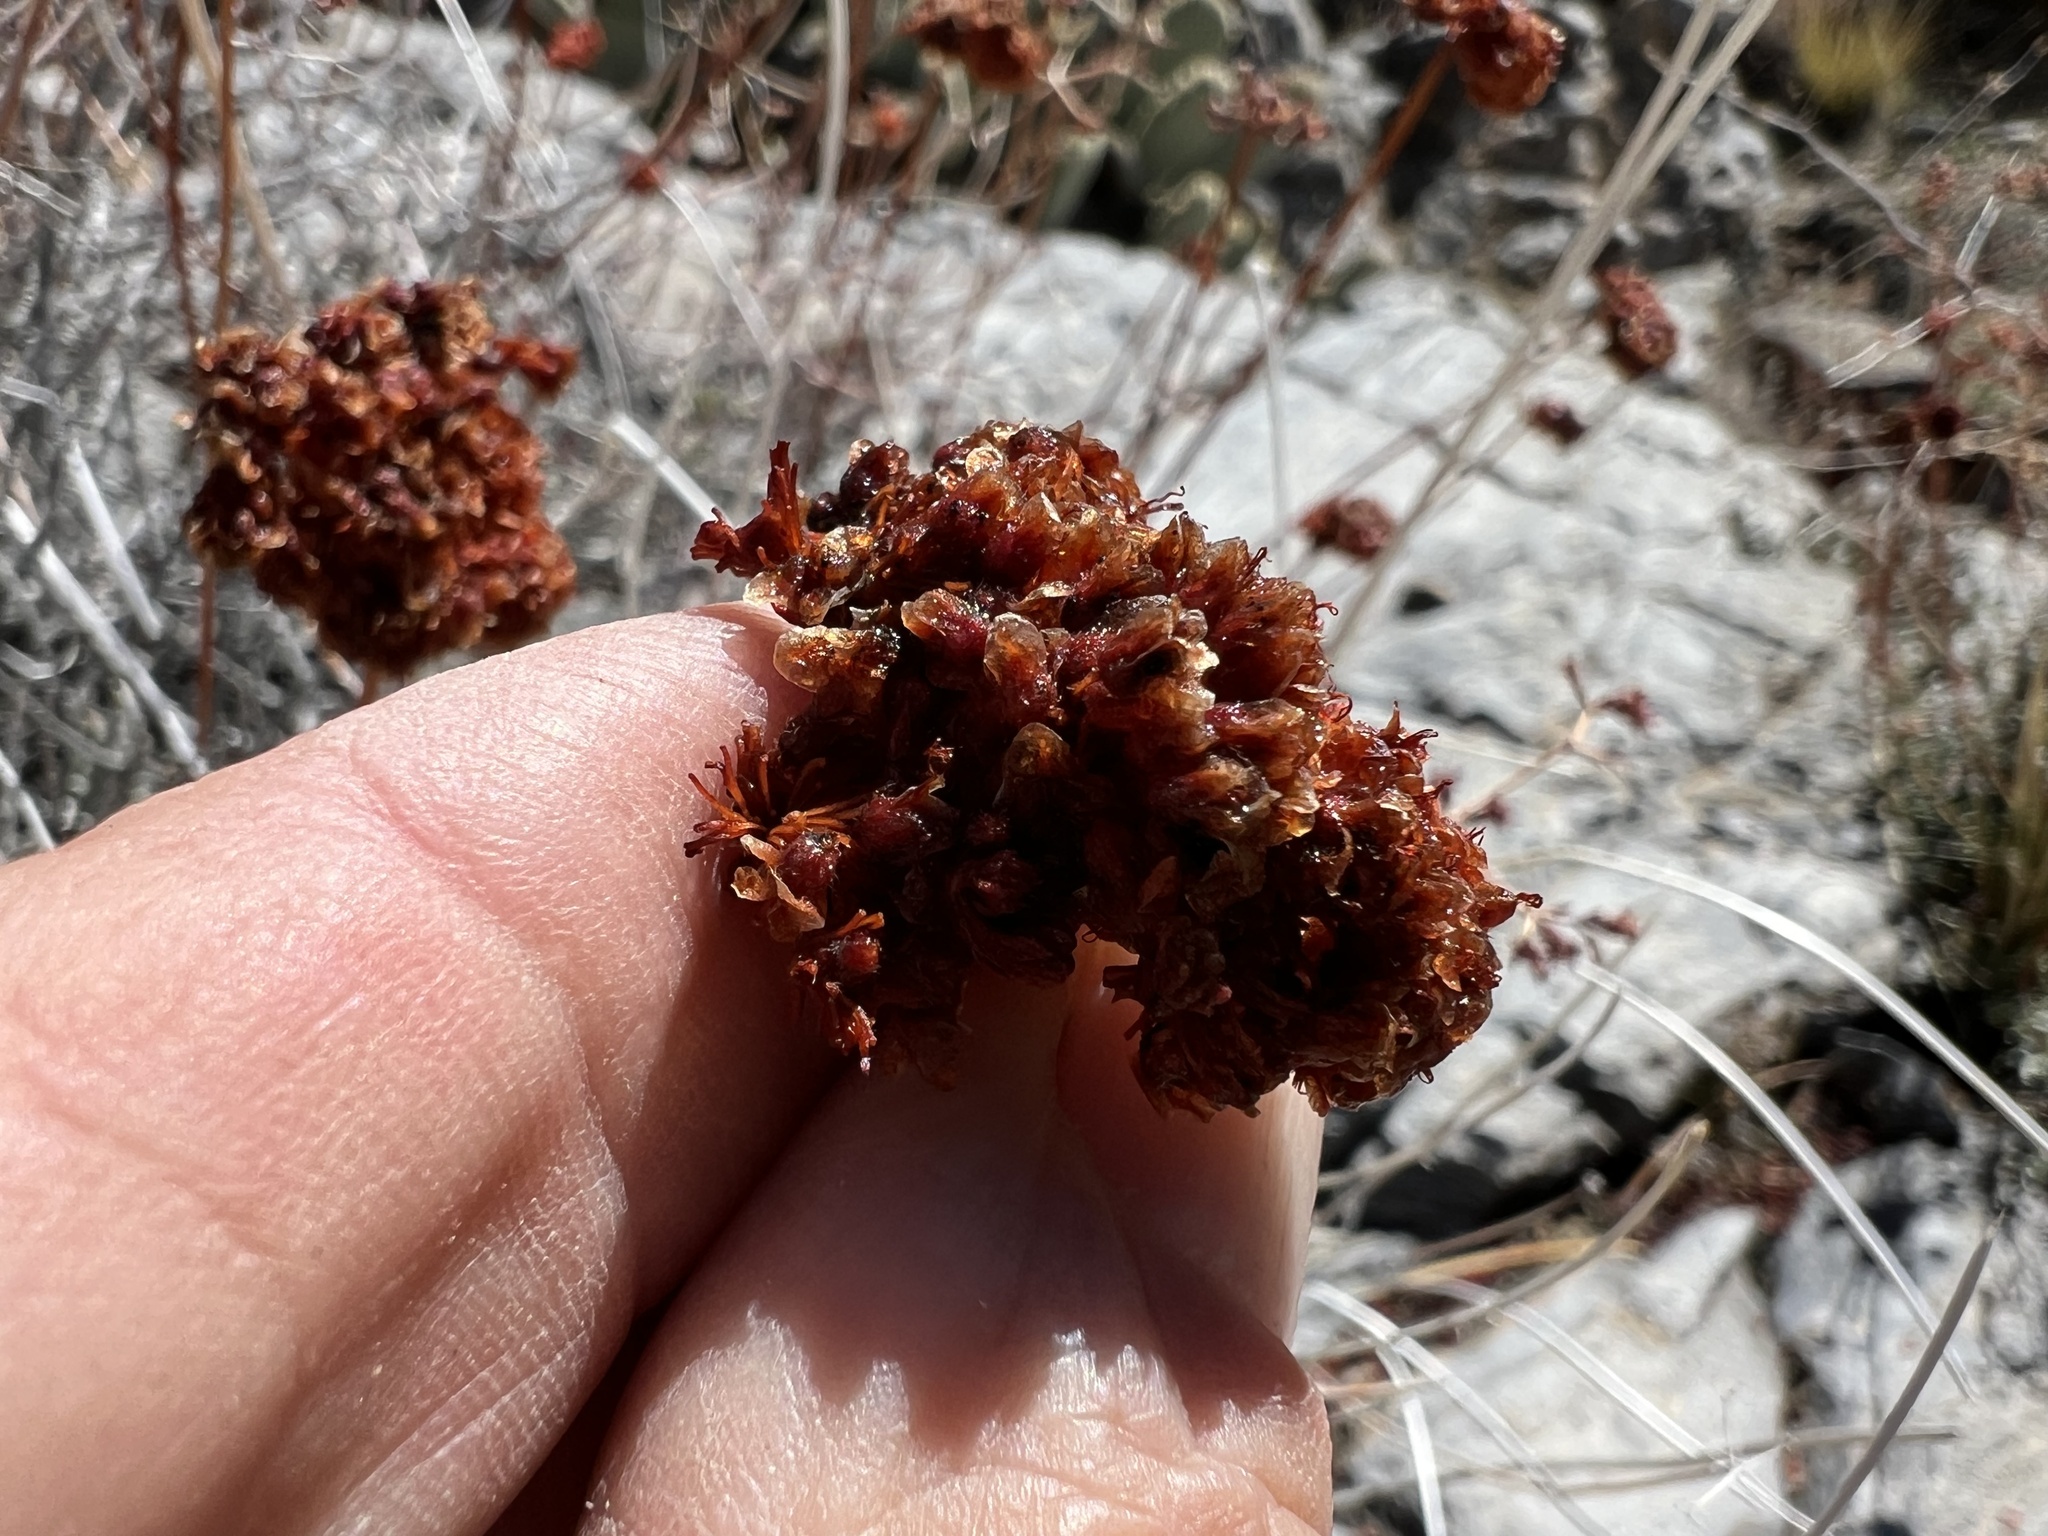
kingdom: Plantae
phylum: Tracheophyta
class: Magnoliopsida
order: Caryophyllales
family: Polygonaceae
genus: Eriogonum
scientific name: Eriogonum fasciculatum
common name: California wild buckwheat
